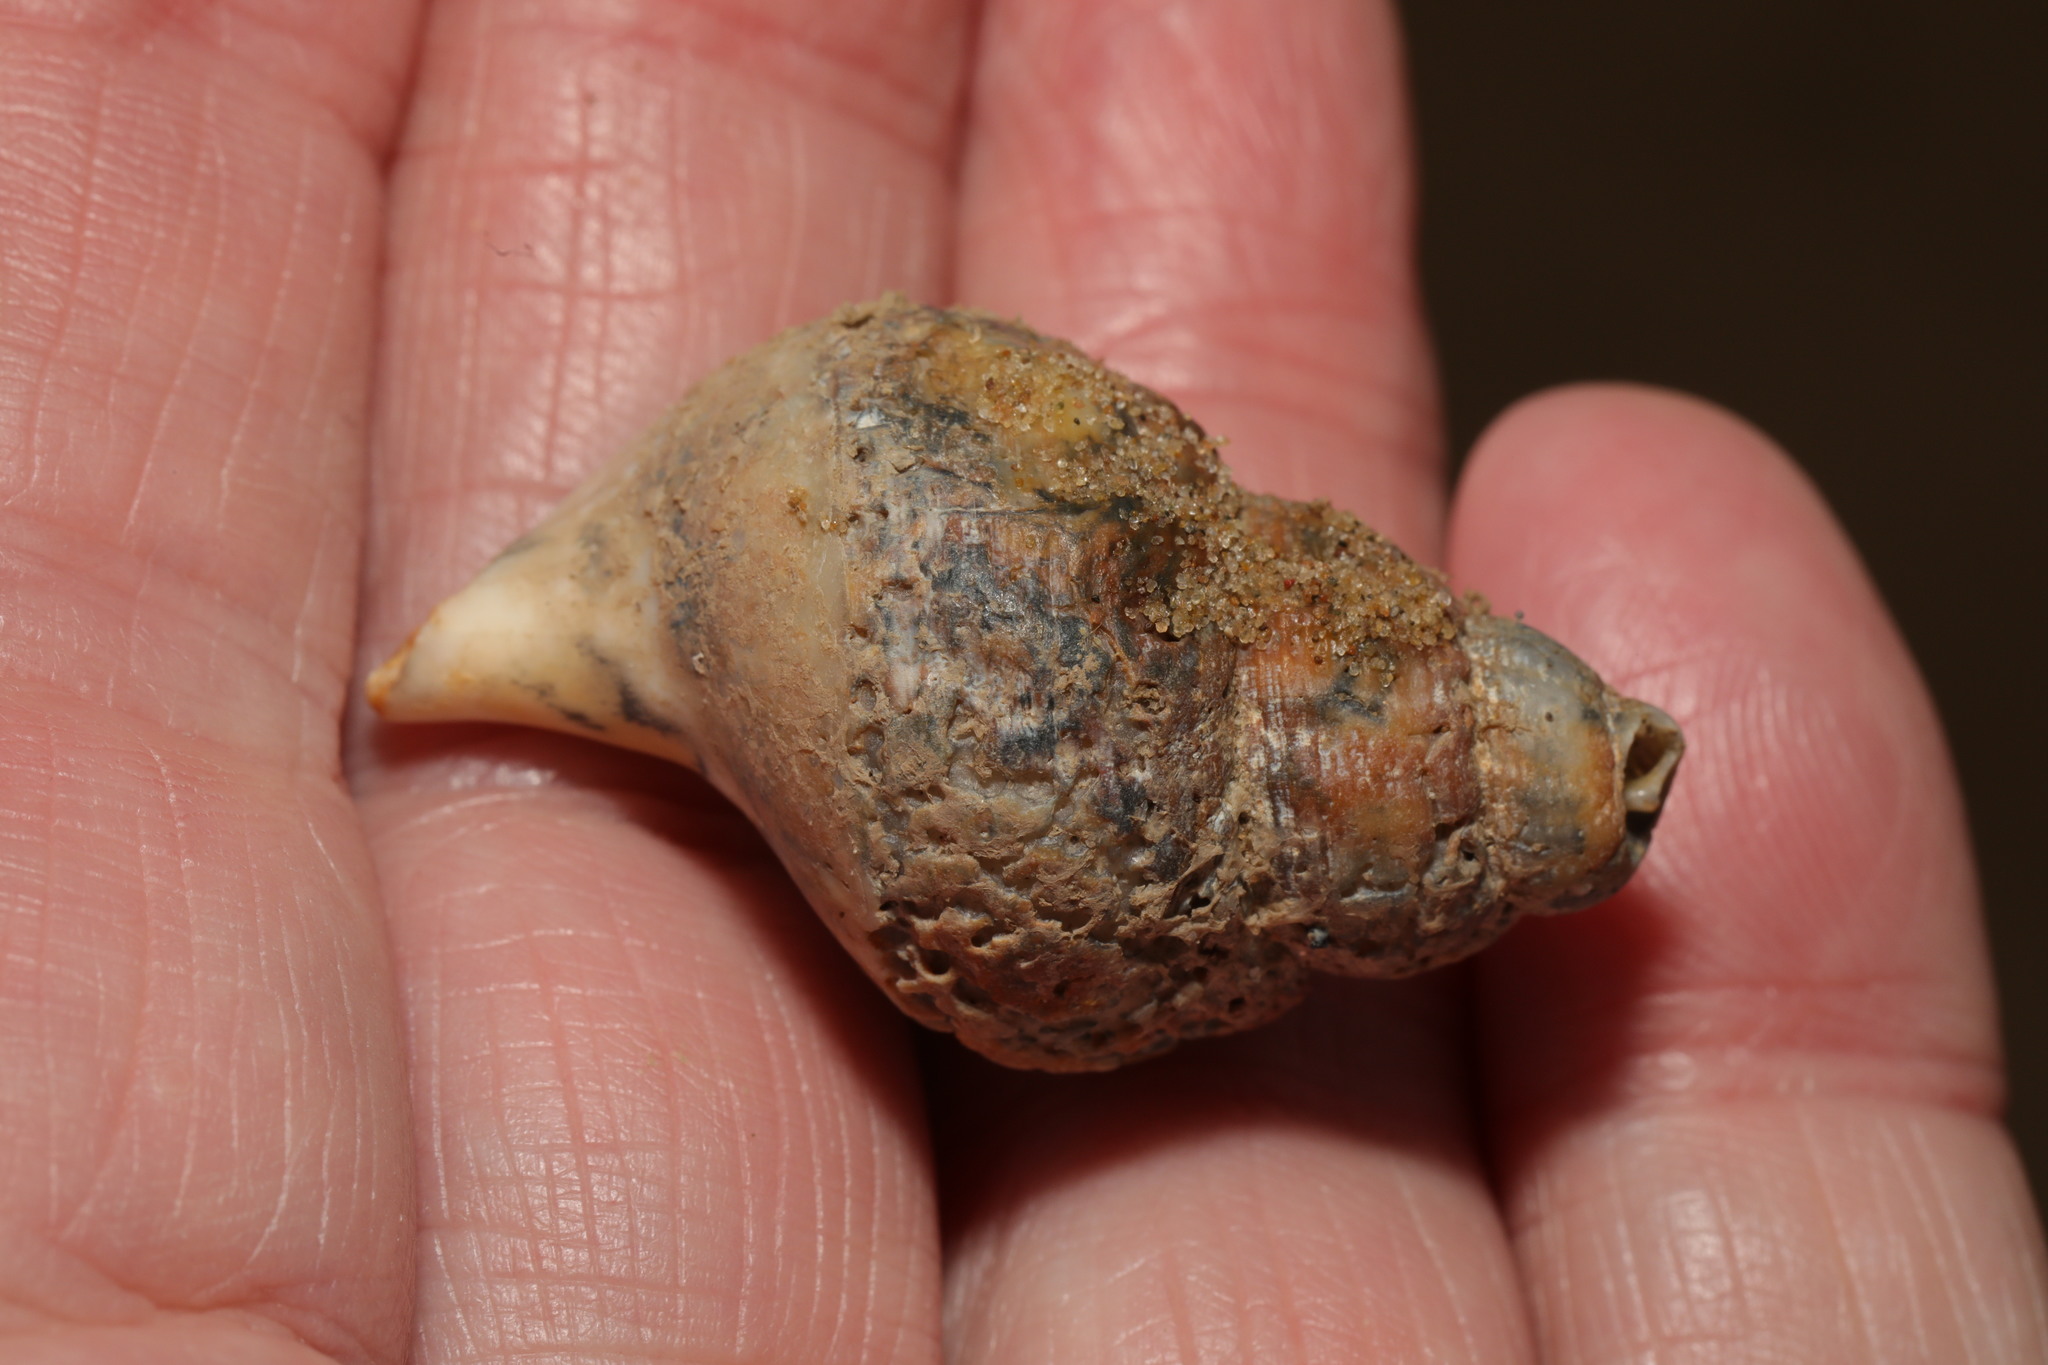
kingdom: Animalia
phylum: Mollusca
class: Gastropoda
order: Neogastropoda
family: Buccinidae
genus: Buccinum
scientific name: Buccinum undatum
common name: Common whelk
